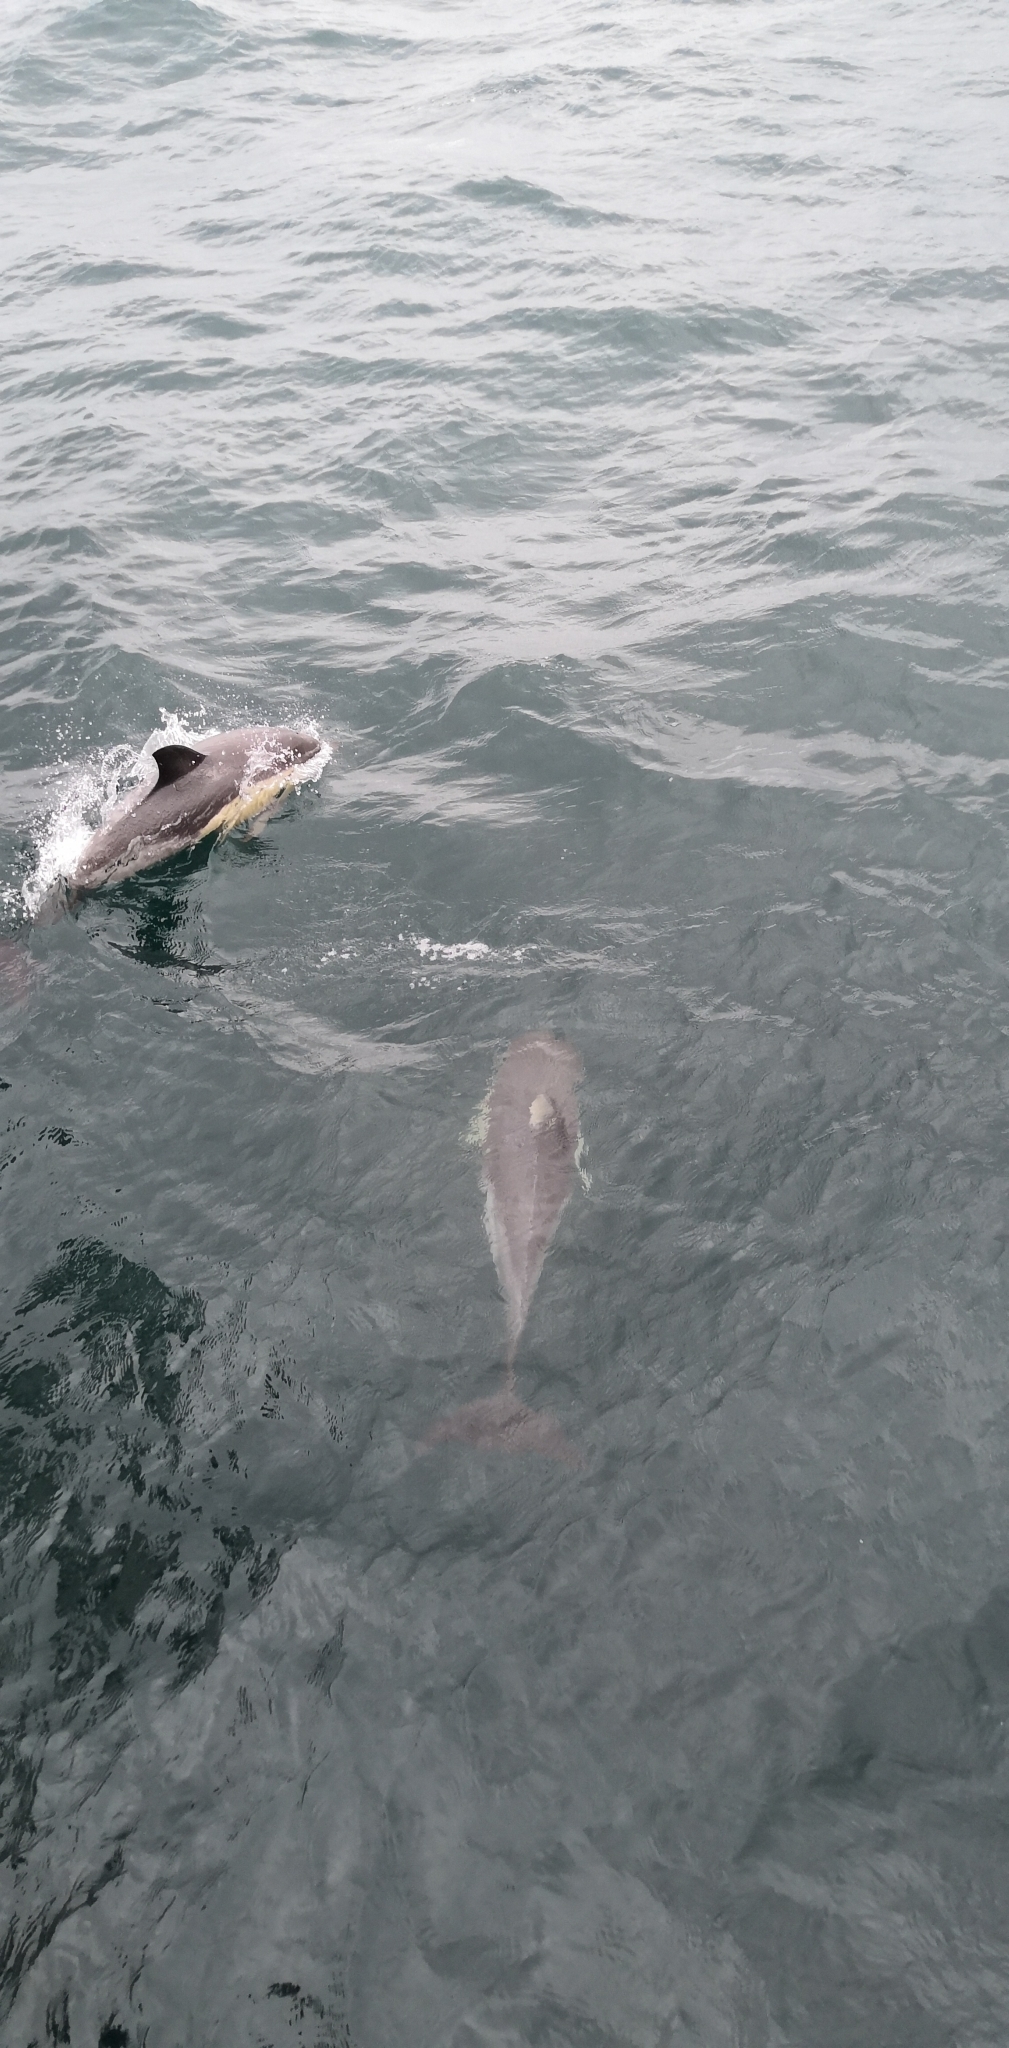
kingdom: Animalia
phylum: Chordata
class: Mammalia
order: Cetacea
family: Delphinidae
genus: Delphinus
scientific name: Delphinus delphis
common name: Common dolphin
